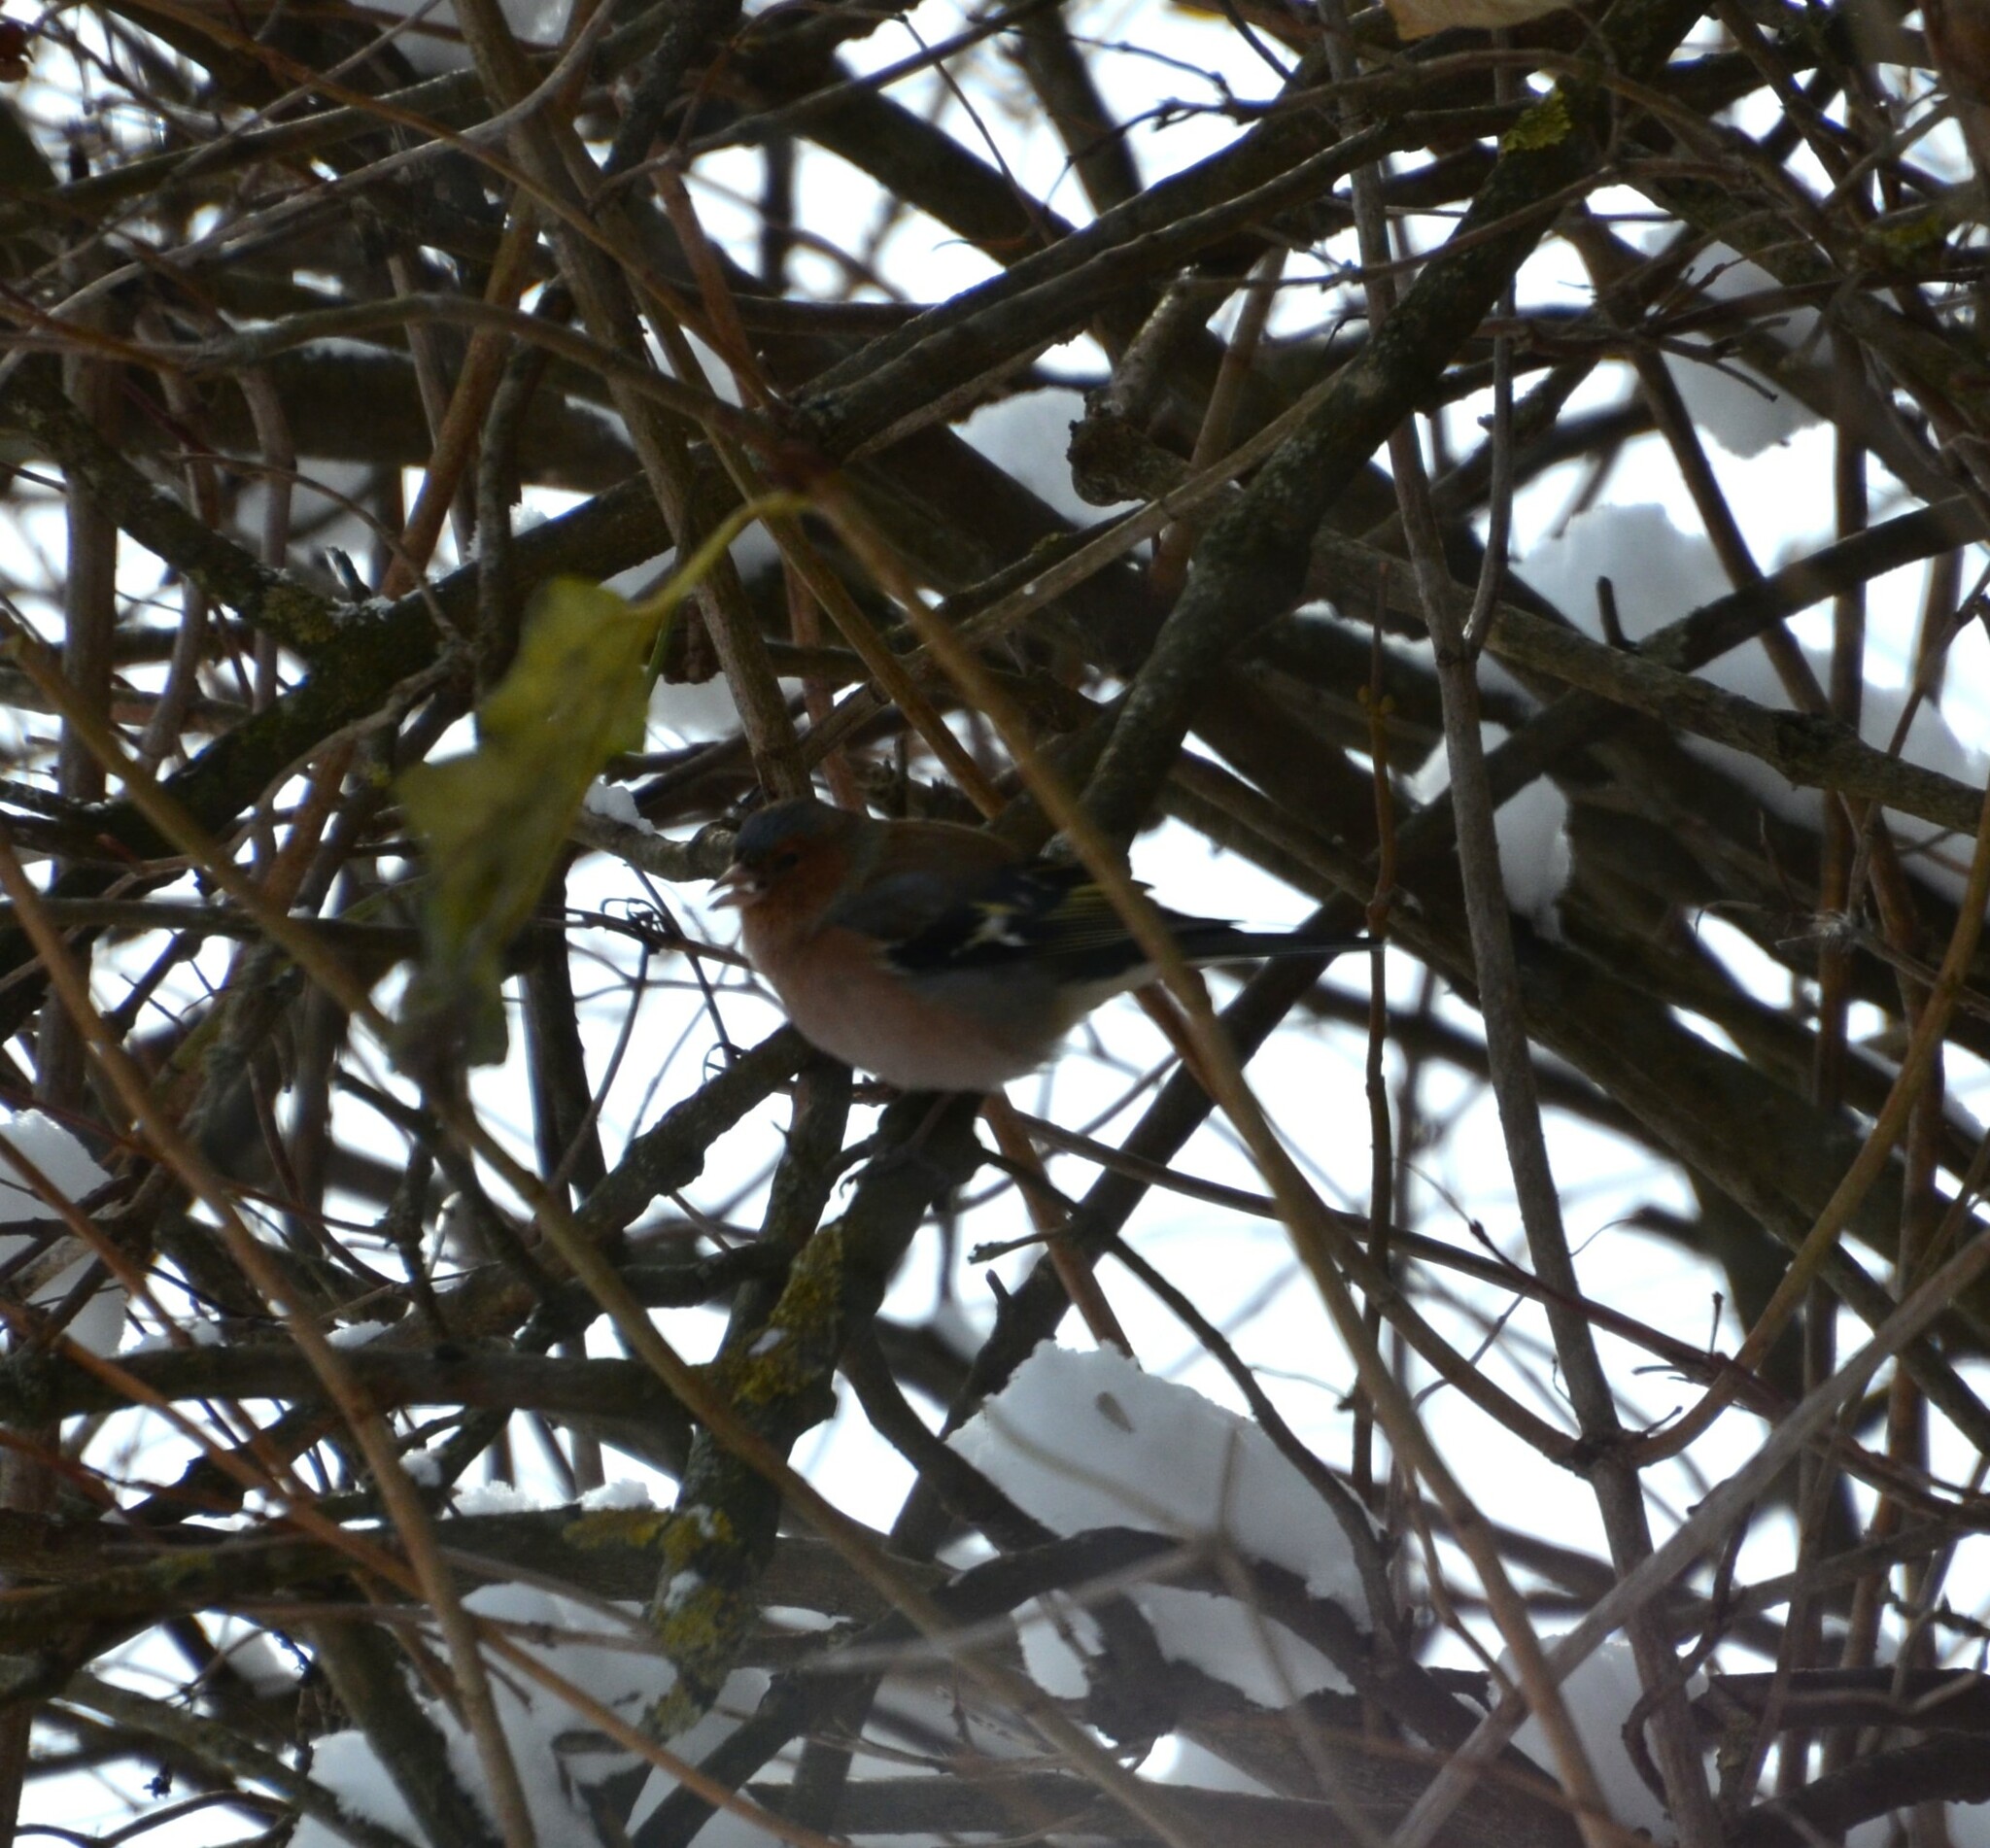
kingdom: Animalia
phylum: Chordata
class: Aves
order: Passeriformes
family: Fringillidae
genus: Fringilla
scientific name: Fringilla coelebs
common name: Common chaffinch
